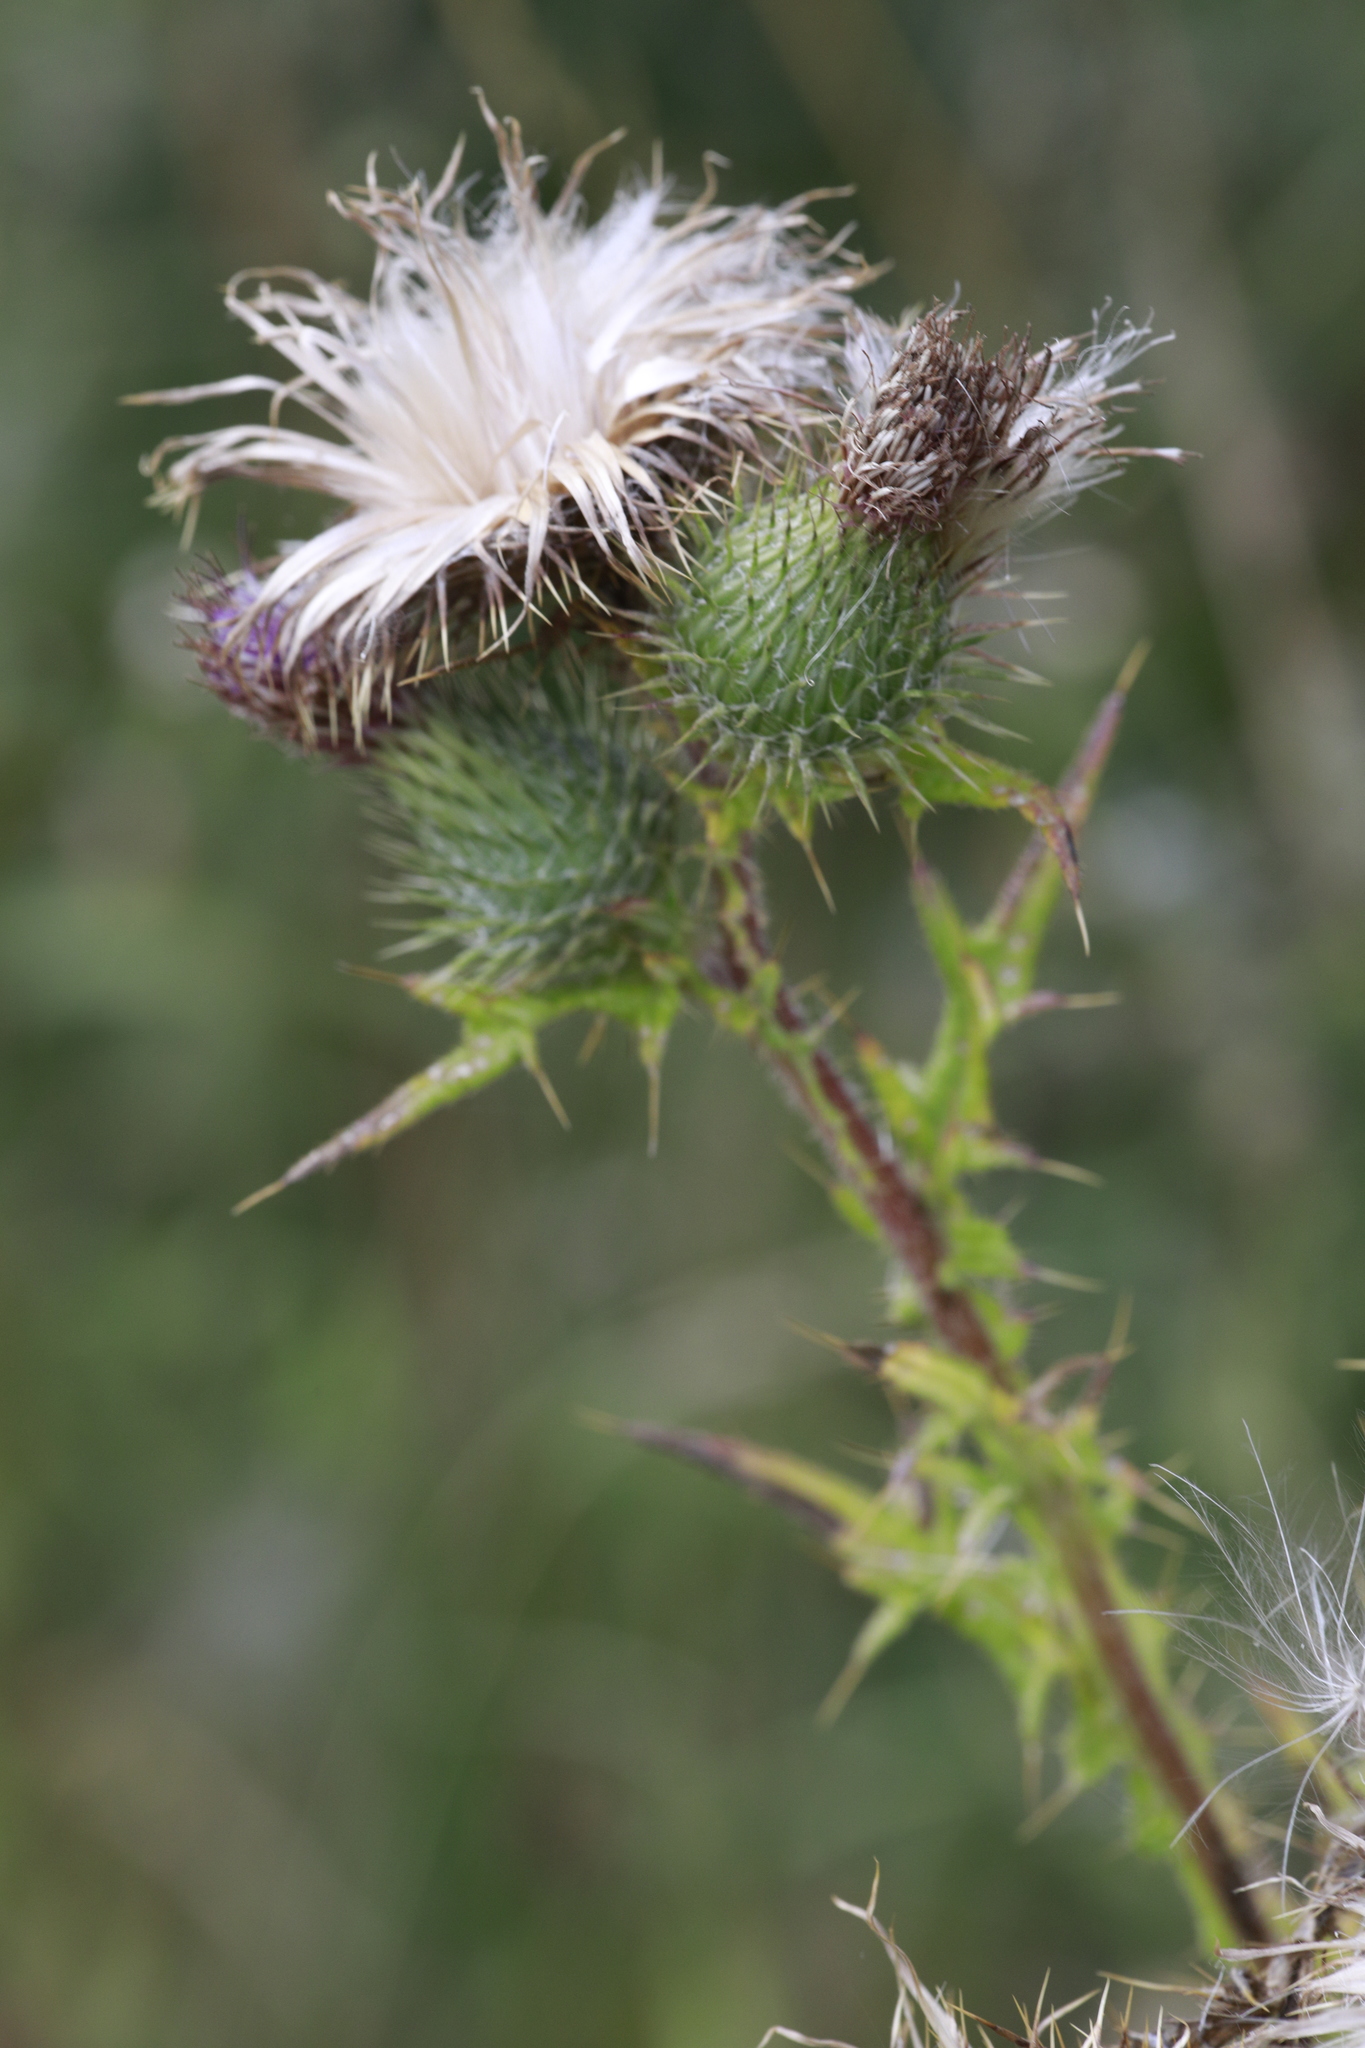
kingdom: Plantae
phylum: Tracheophyta
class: Magnoliopsida
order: Asterales
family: Asteraceae
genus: Cirsium
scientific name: Cirsium vulgare
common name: Bull thistle
